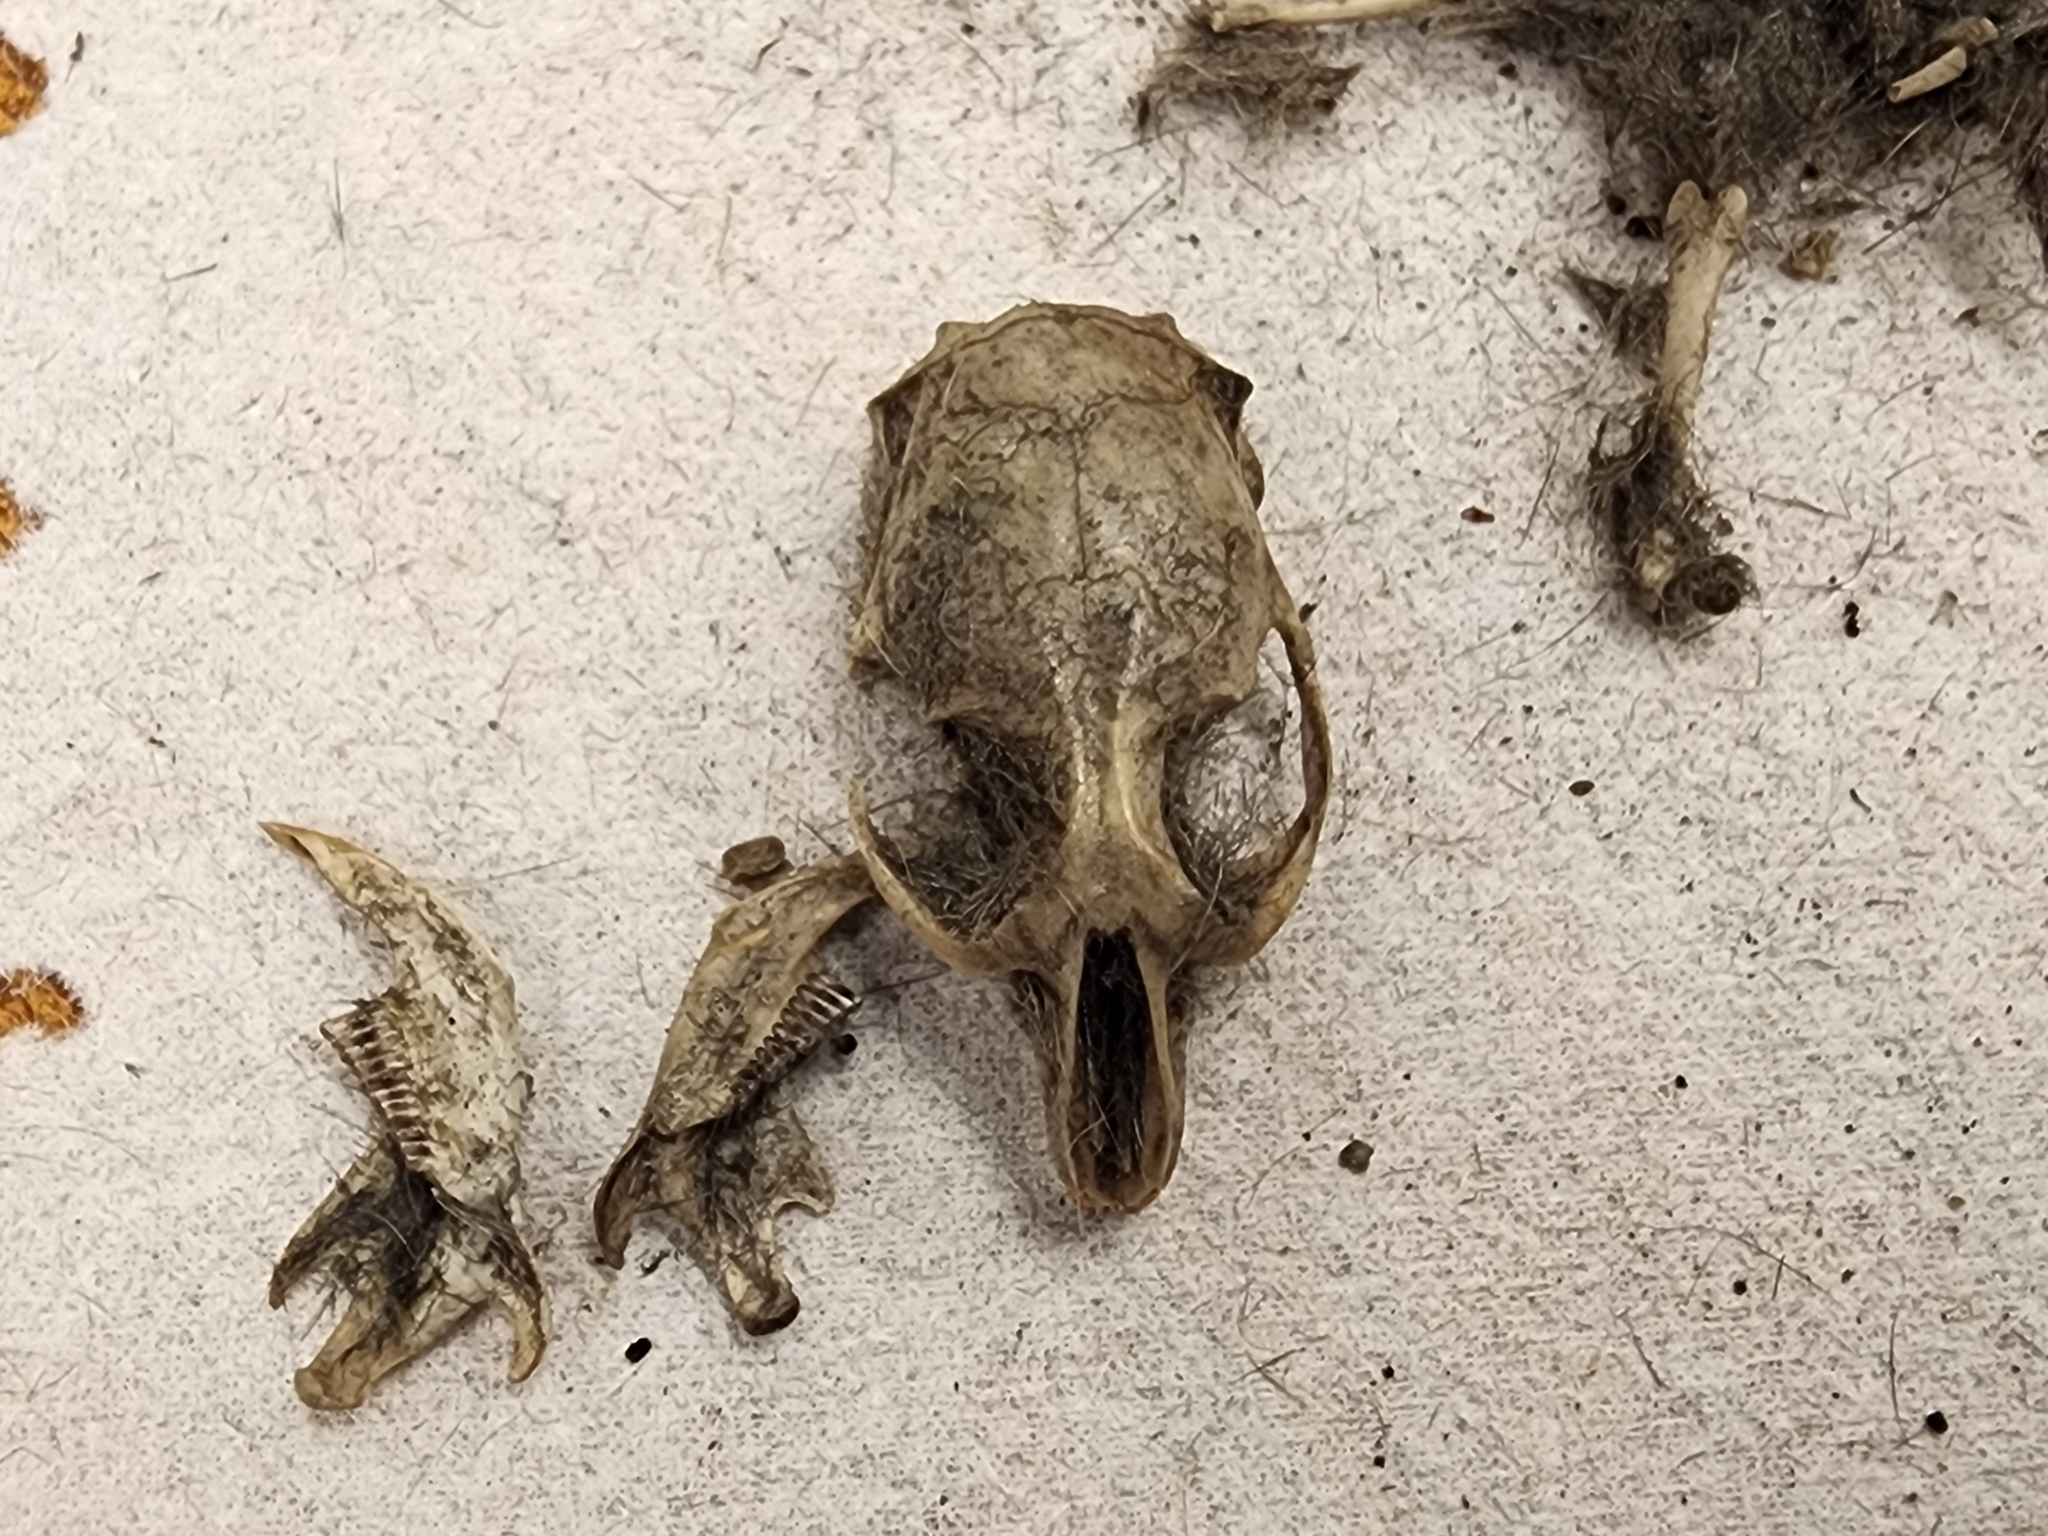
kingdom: Animalia
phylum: Chordata
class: Mammalia
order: Rodentia
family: Cricetidae
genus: Microtus
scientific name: Microtus pennsylvanicus
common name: Meadow vole
